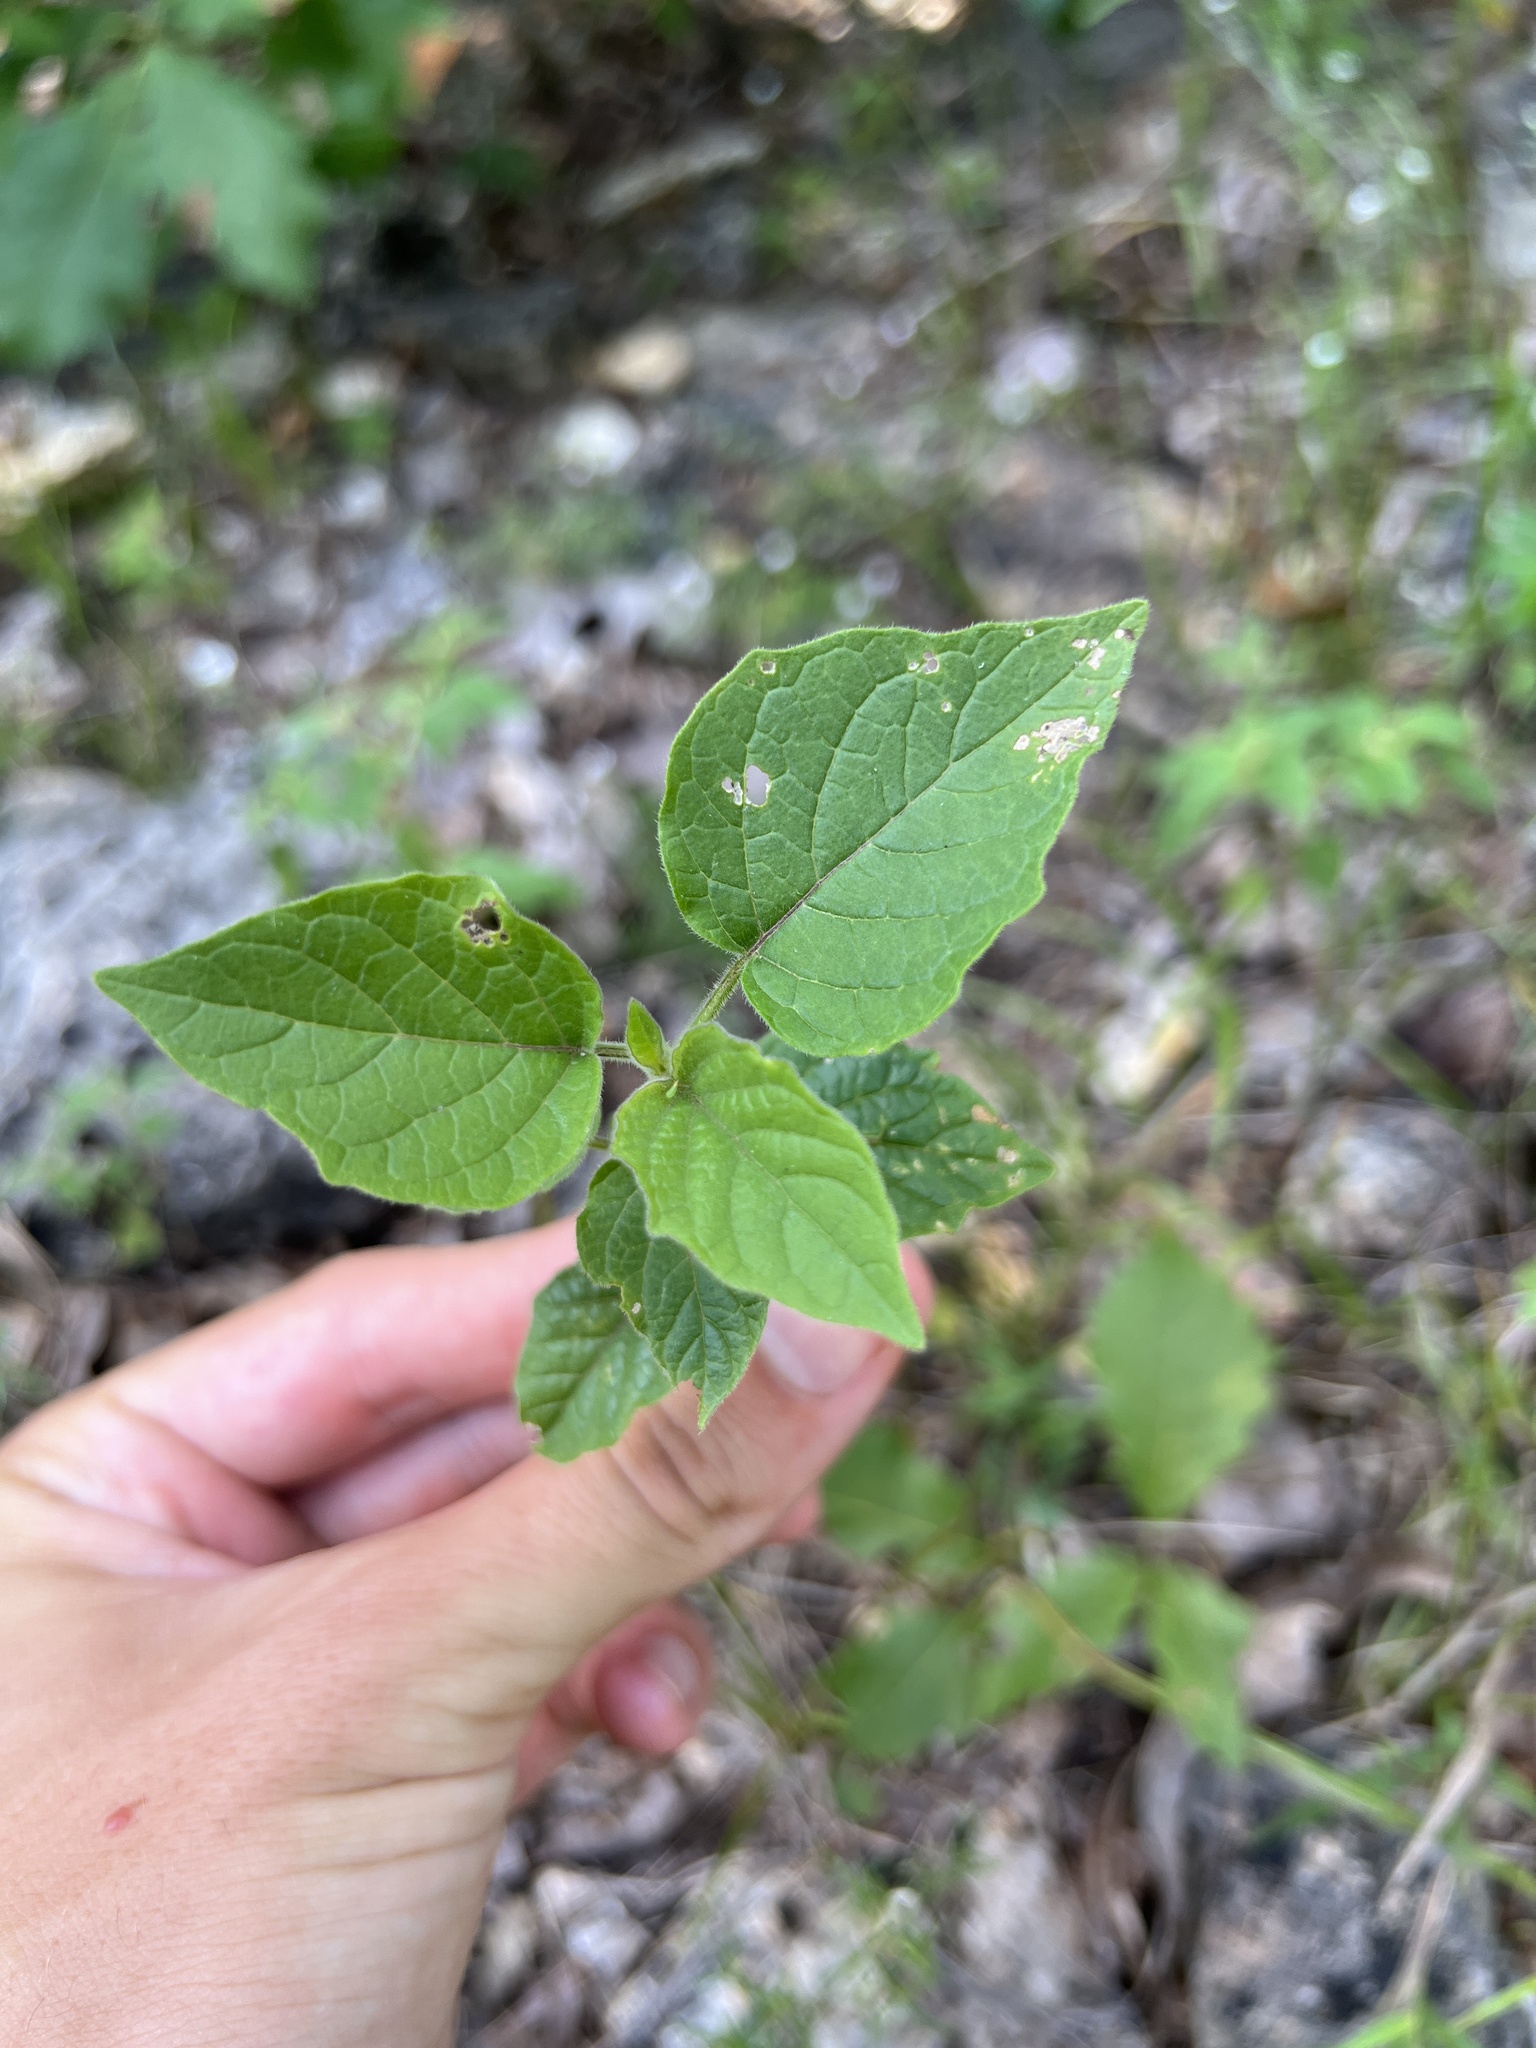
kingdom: Plantae
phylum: Tracheophyta
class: Magnoliopsida
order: Solanales
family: Solanaceae
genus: Physalis
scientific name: Physalis heterophylla
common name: Clammy ground-cherry
